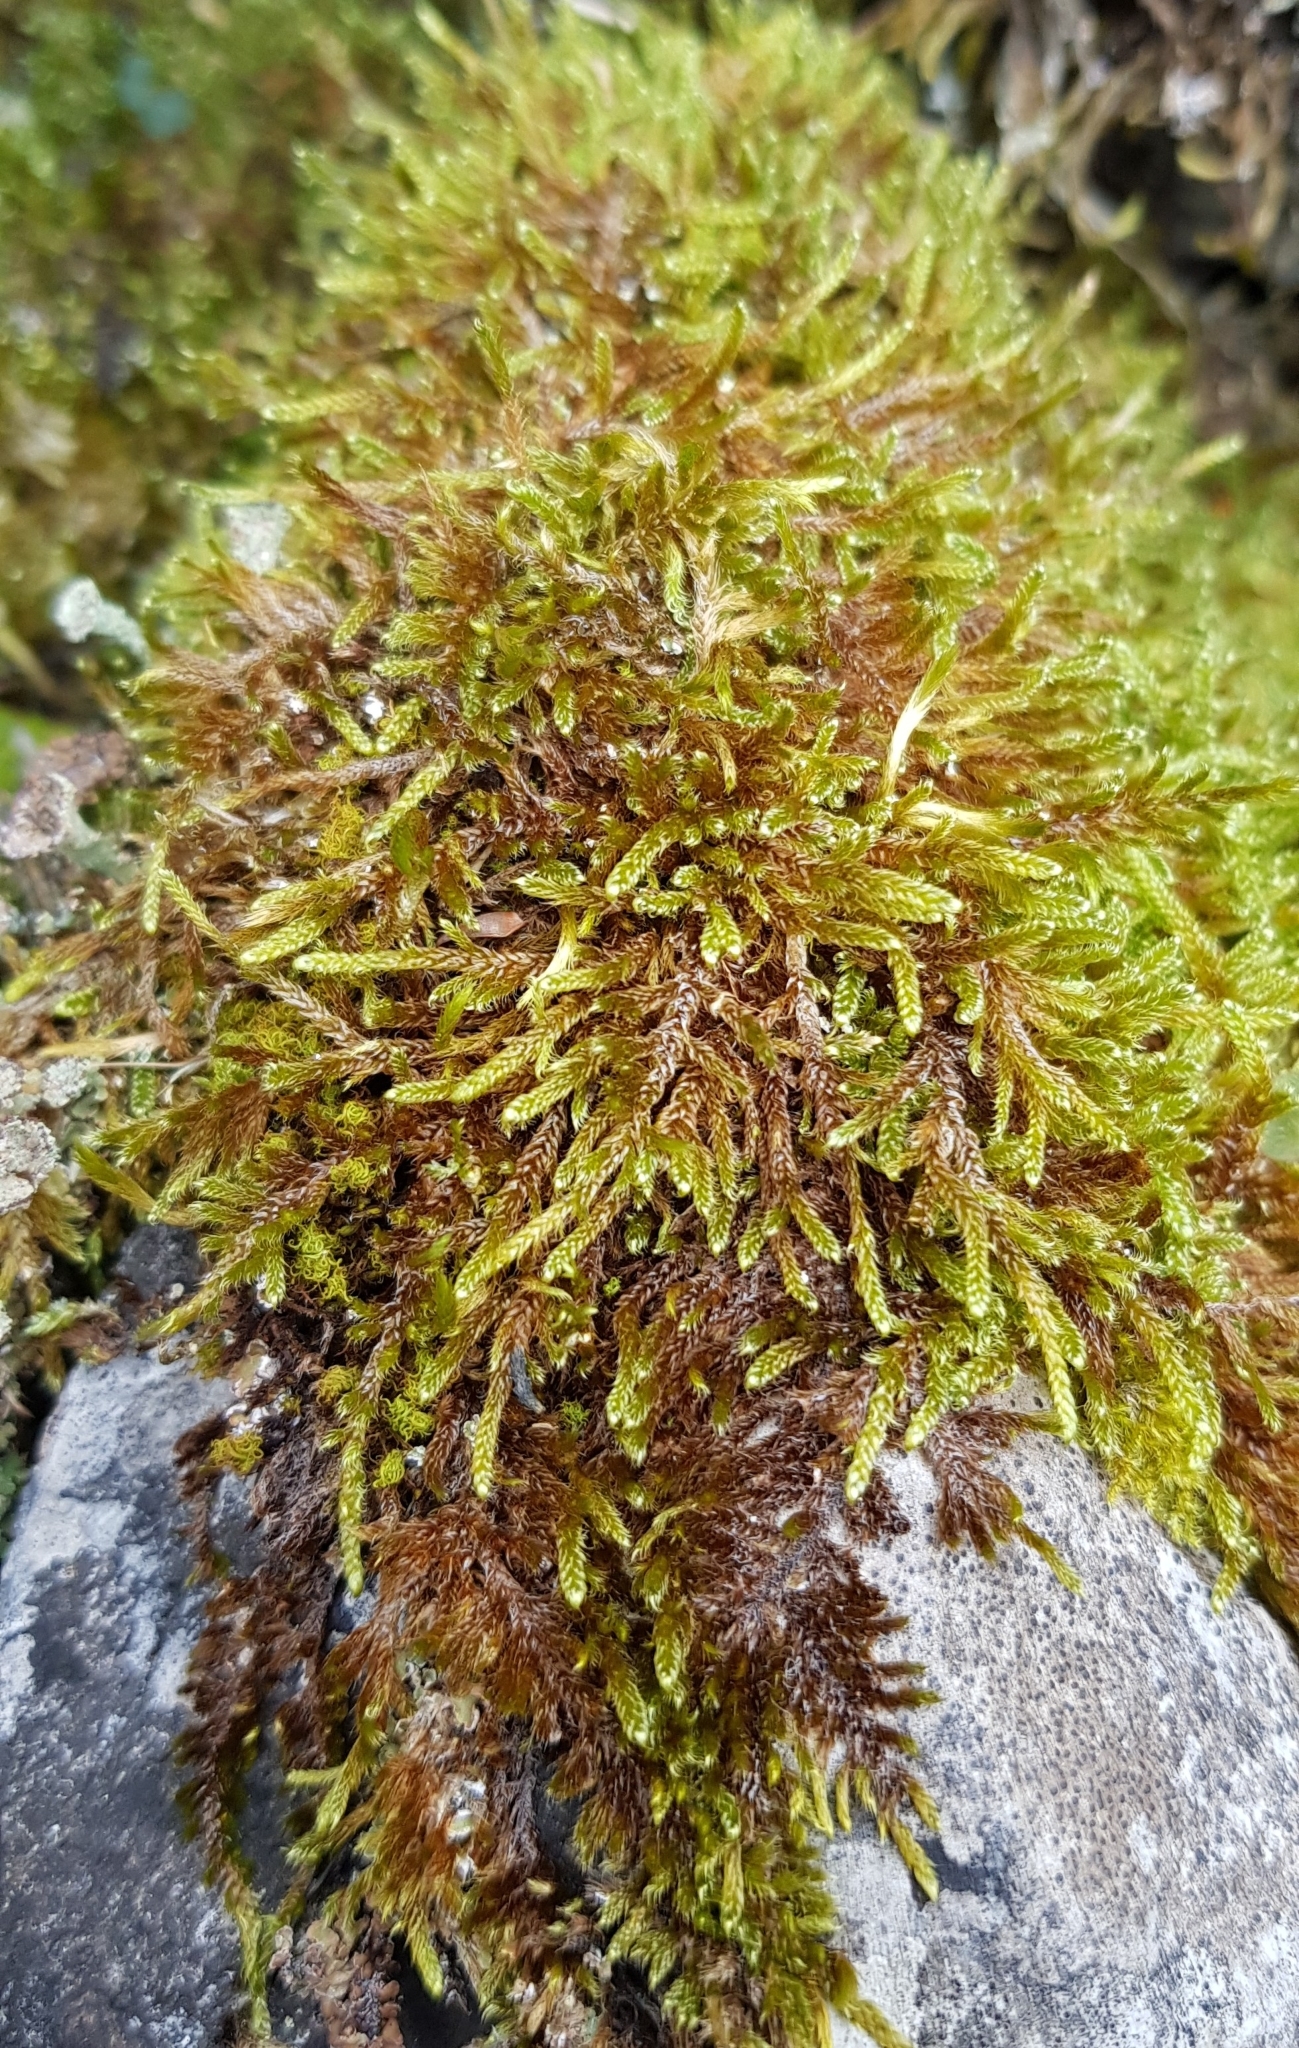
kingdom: Plantae
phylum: Bryophyta
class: Bryopsida
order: Hypnales
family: Hypnaceae
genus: Hypnum
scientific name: Hypnum cupressiforme
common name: Cypress-leaved plait-moss
